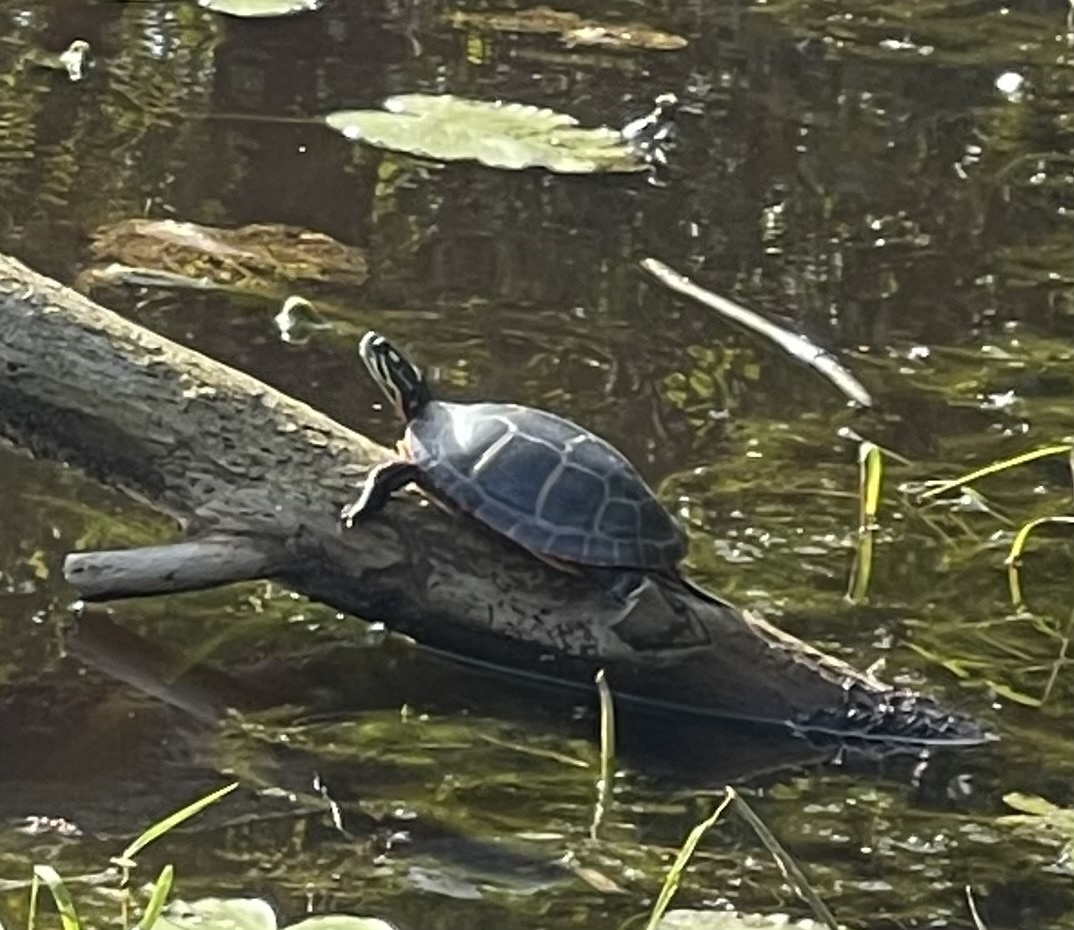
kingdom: Animalia
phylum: Chordata
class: Testudines
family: Emydidae
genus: Chrysemys
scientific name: Chrysemys picta
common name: Painted turtle
